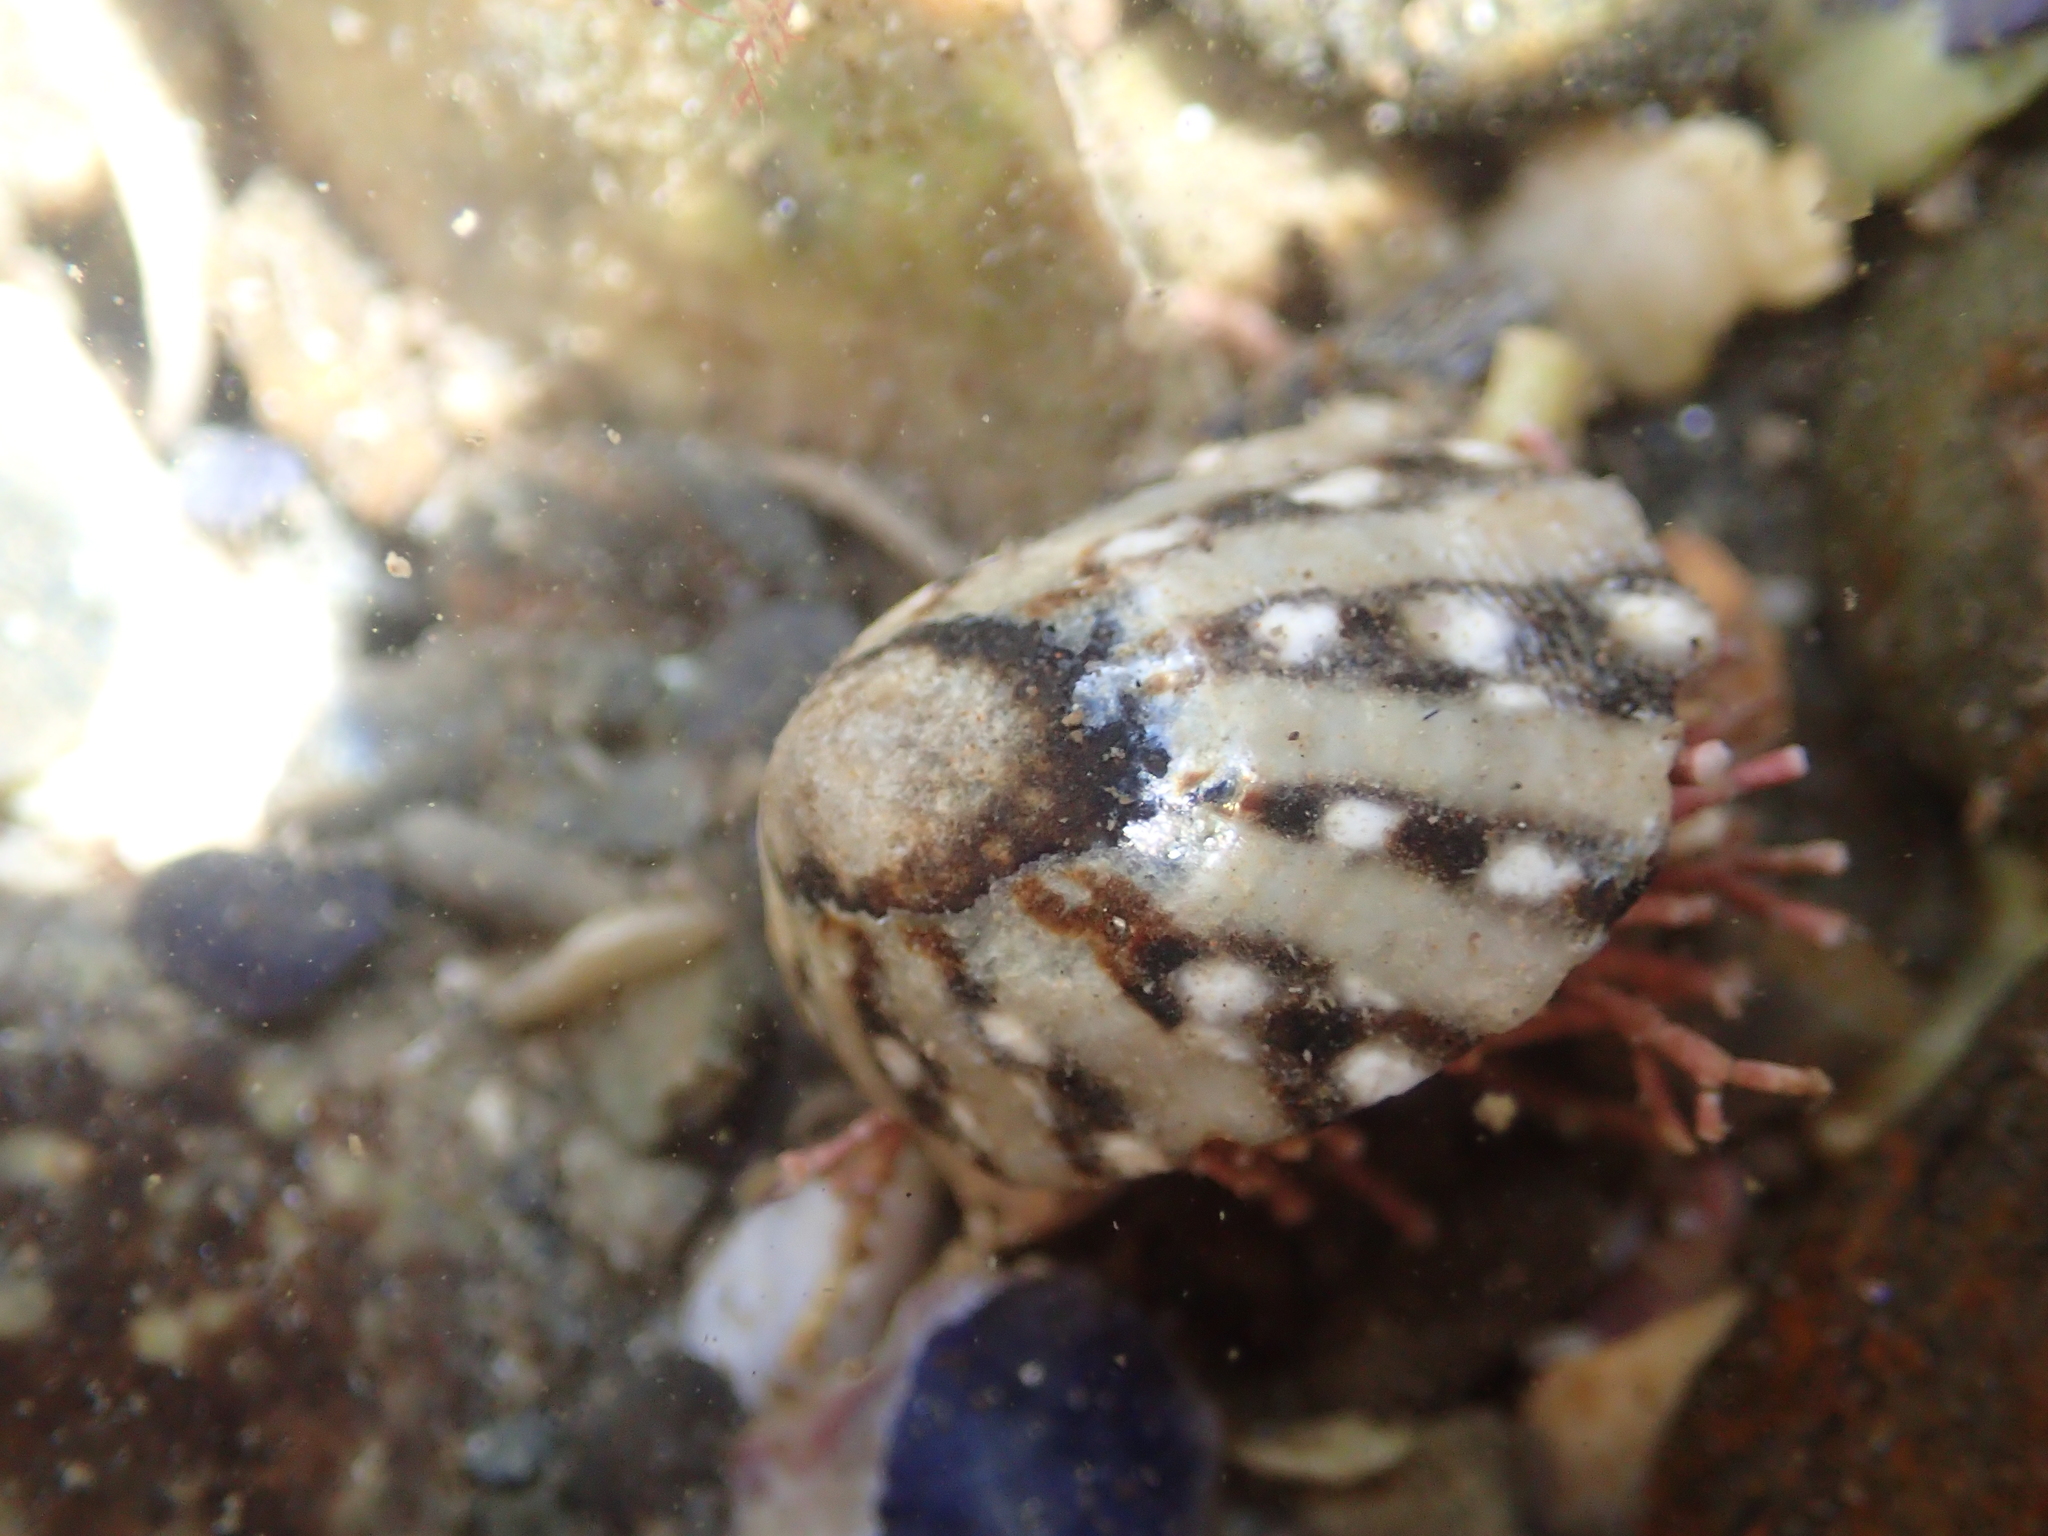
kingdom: Animalia
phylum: Mollusca
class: Gastropoda
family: Nacellidae
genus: Cellana
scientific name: Cellana ornata
